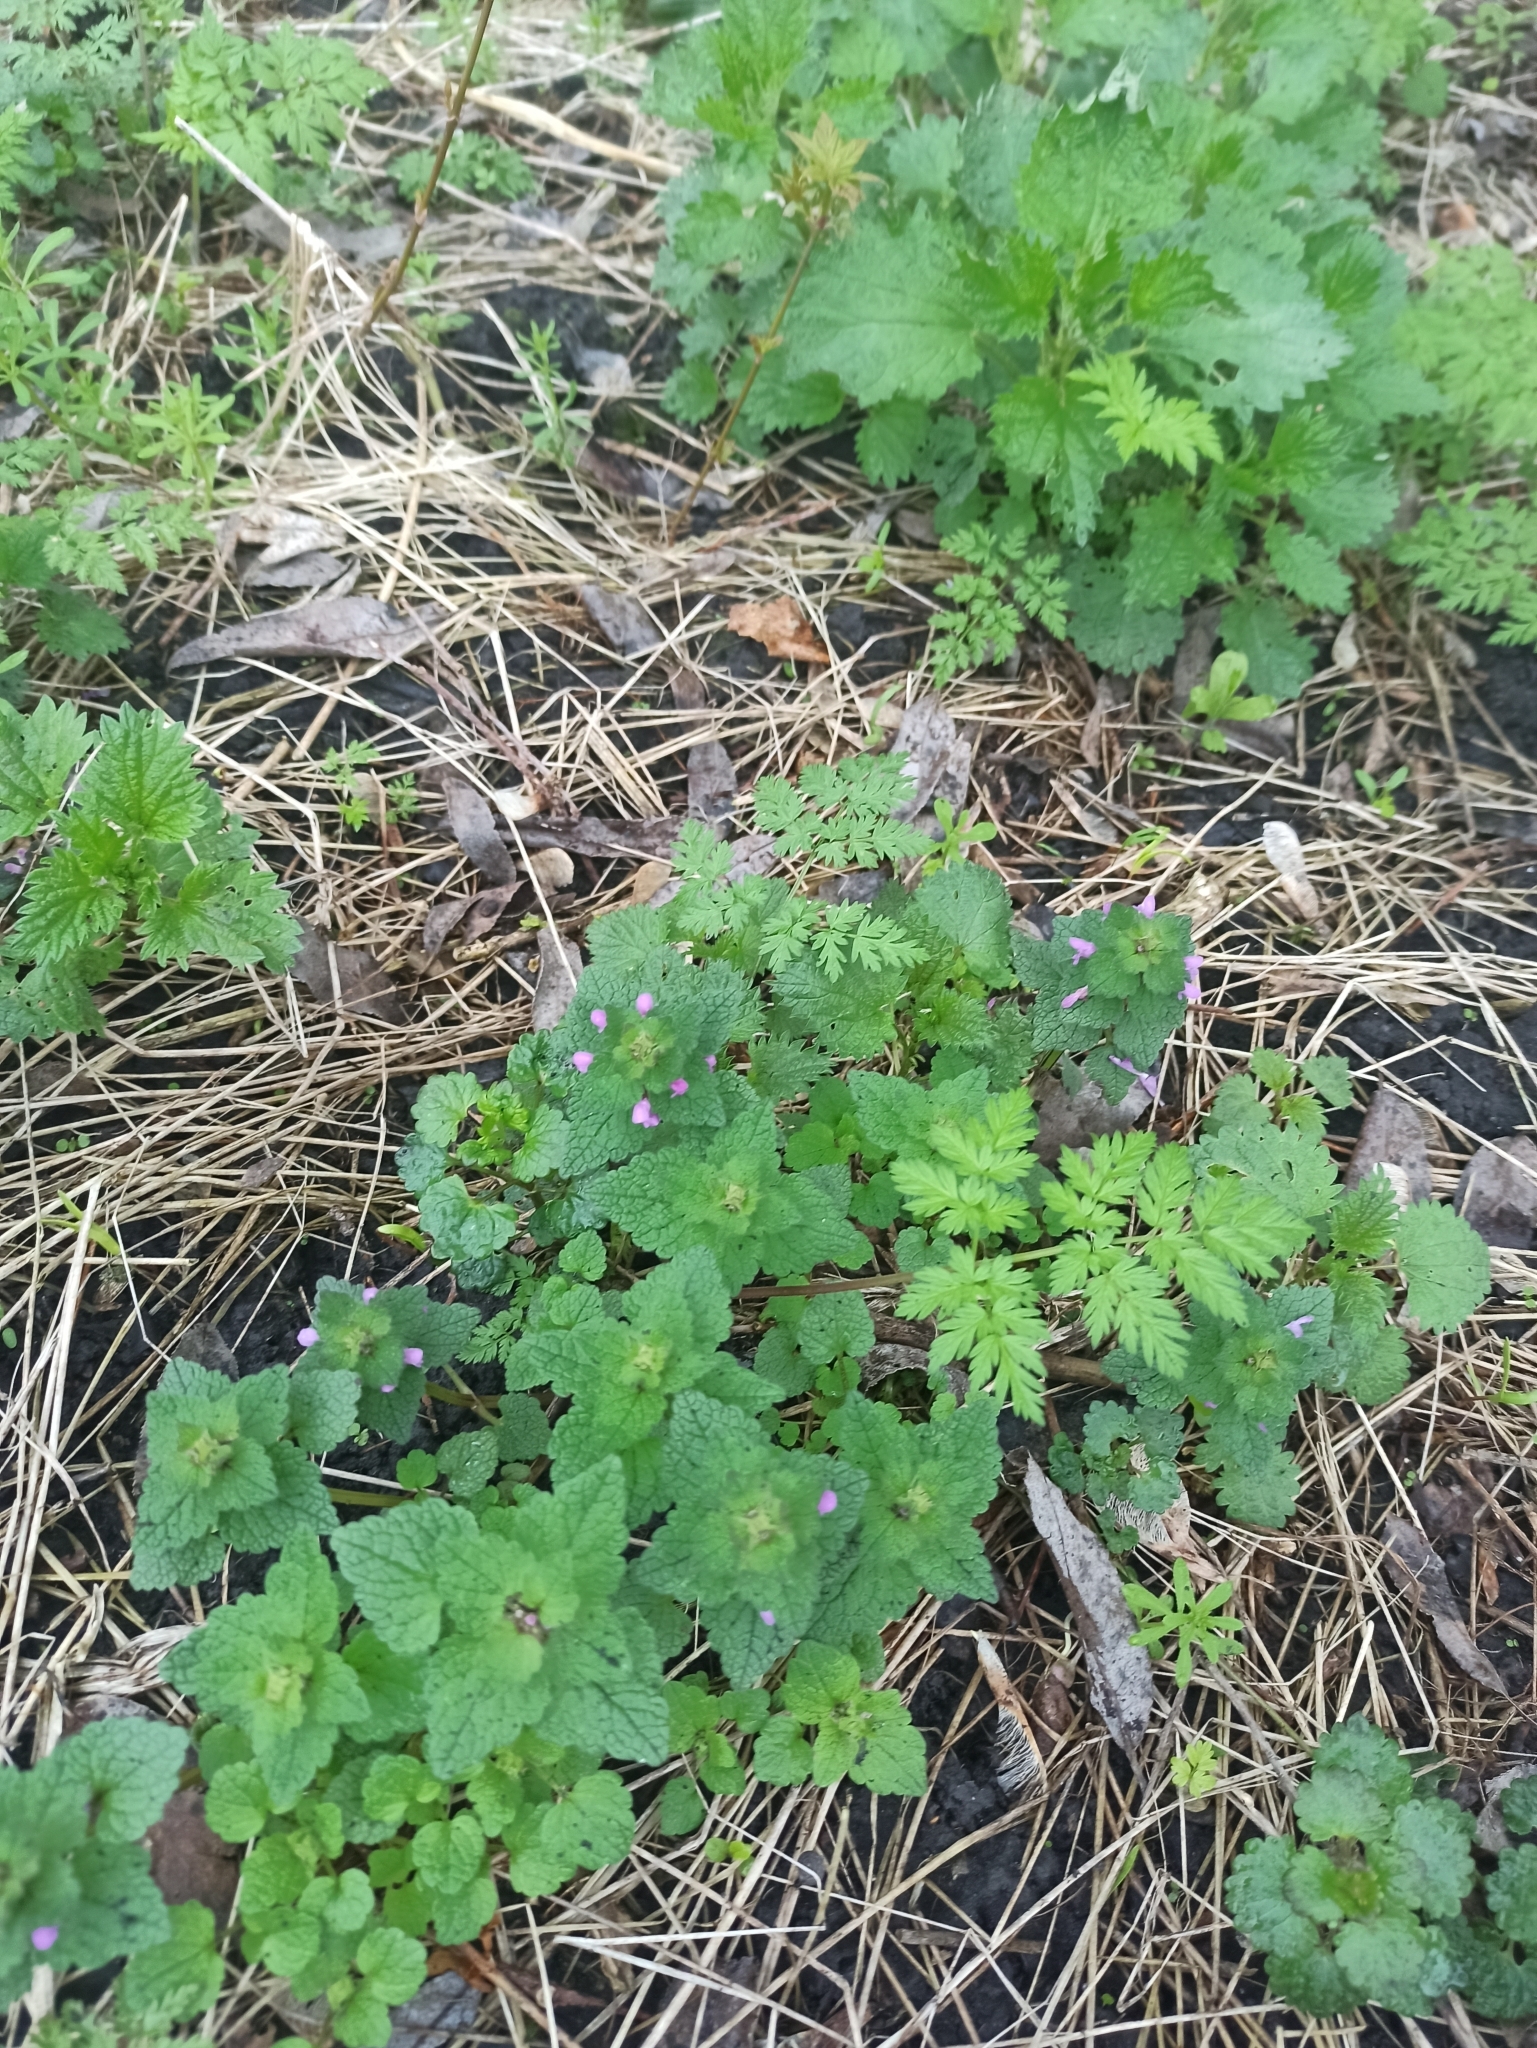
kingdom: Plantae
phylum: Tracheophyta
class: Magnoliopsida
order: Lamiales
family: Lamiaceae
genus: Lamium
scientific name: Lamium purpureum
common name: Red dead-nettle
